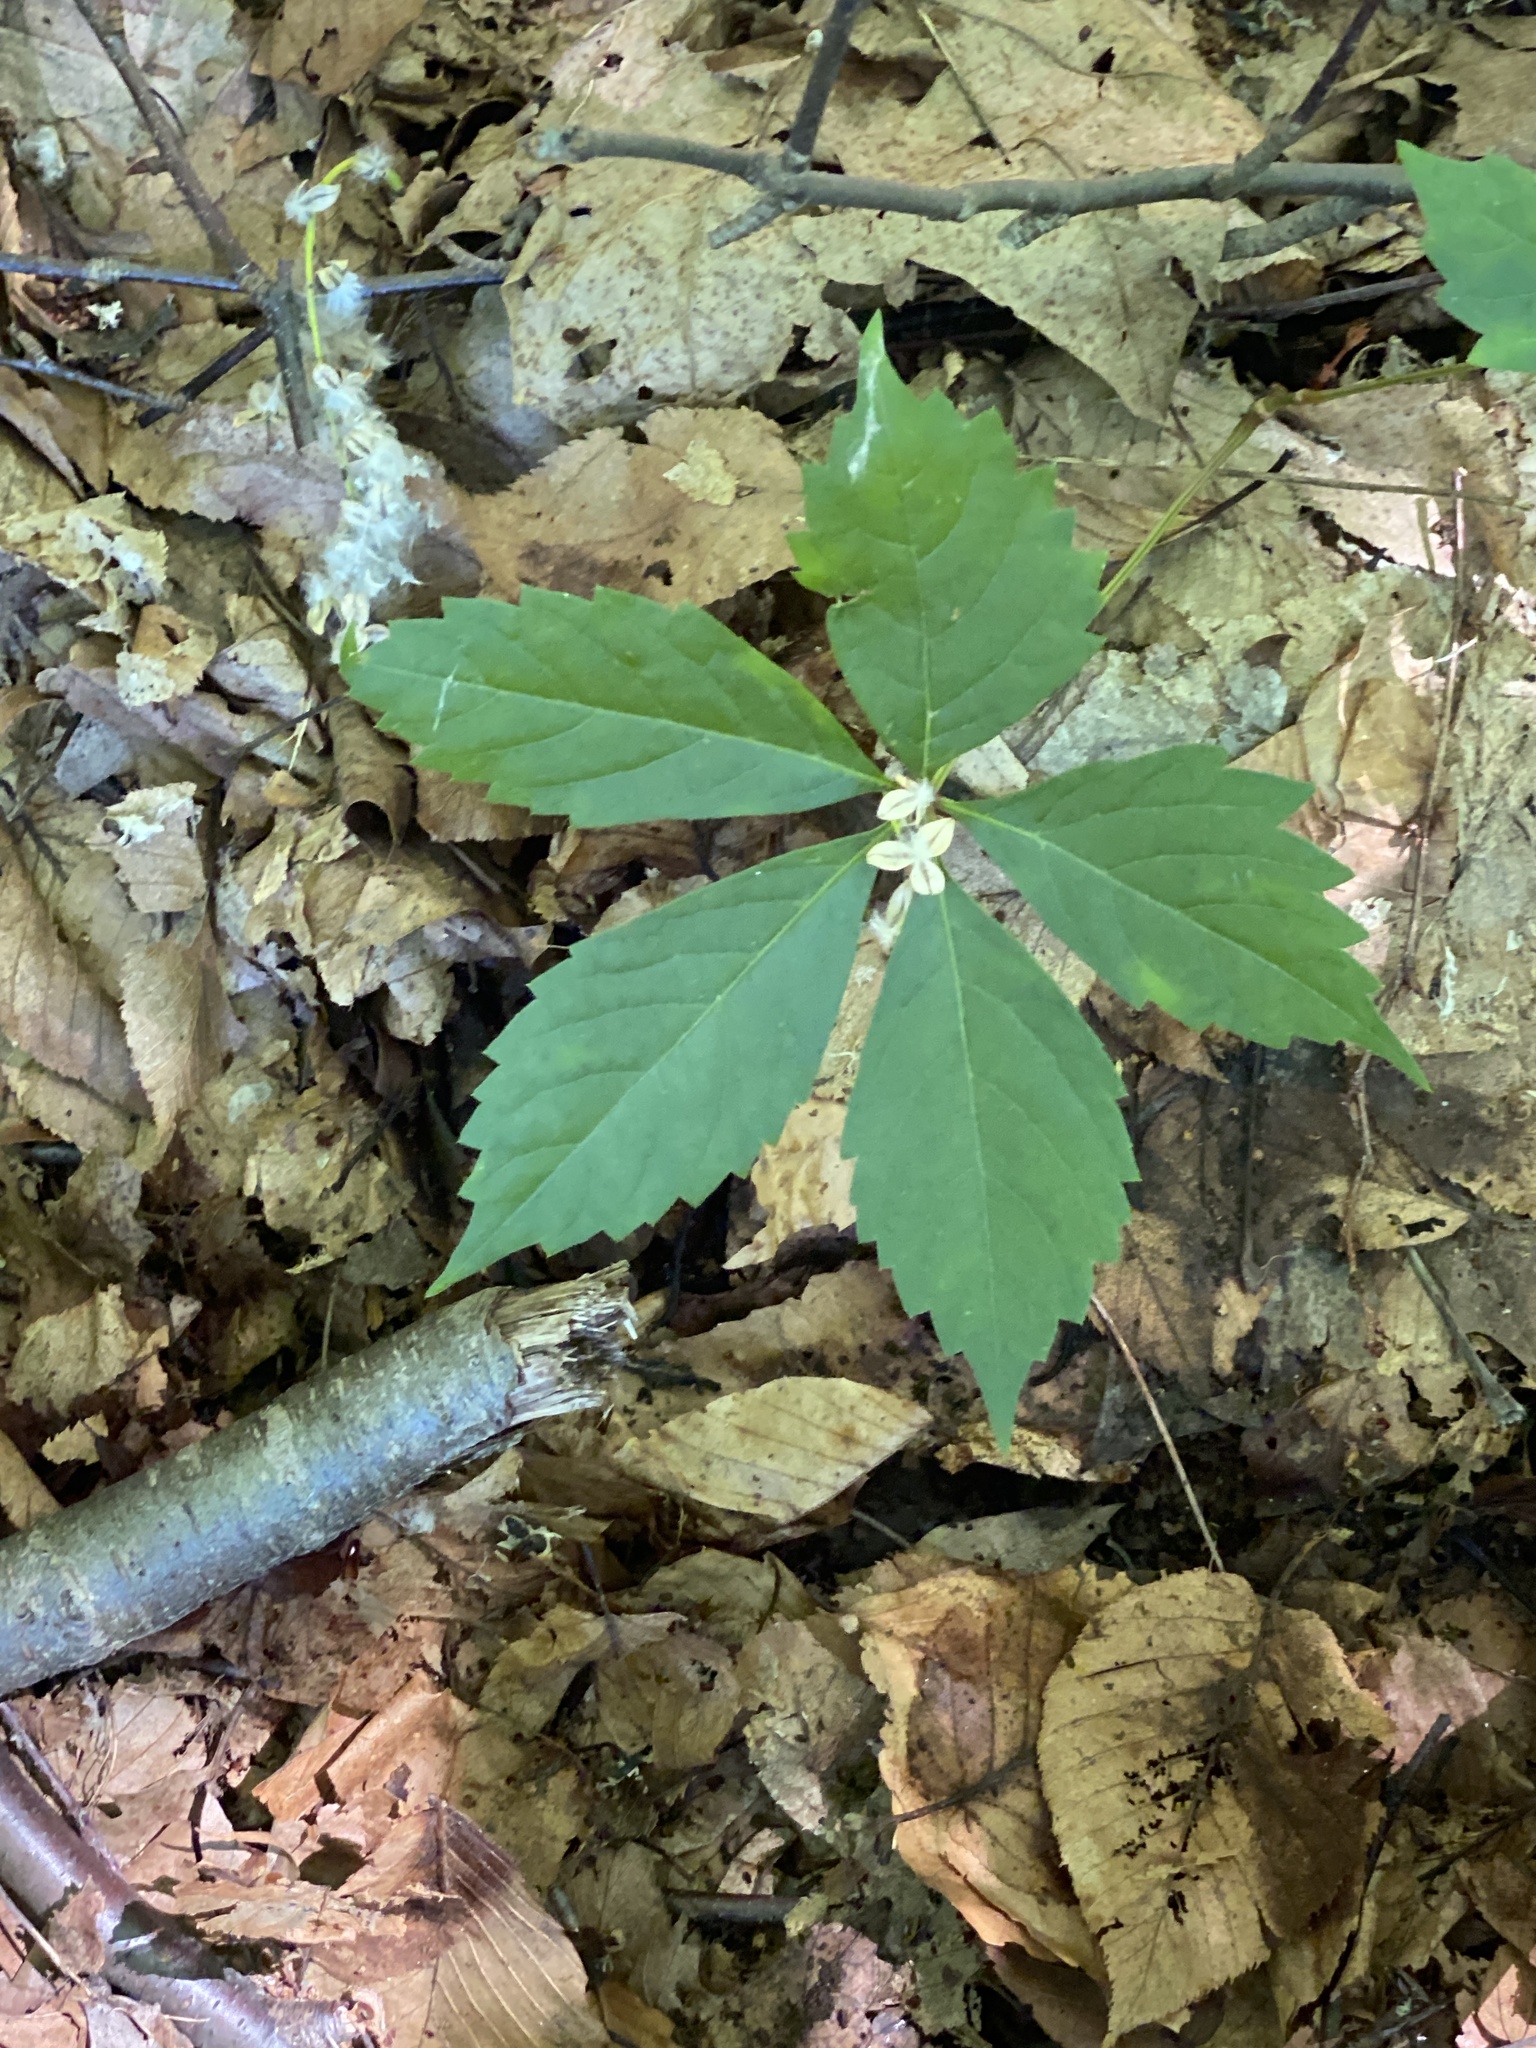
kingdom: Plantae
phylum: Tracheophyta
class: Magnoliopsida
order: Malpighiales
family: Salicaceae
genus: Populus
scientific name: Populus deltoides
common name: Eastern cottonwood
